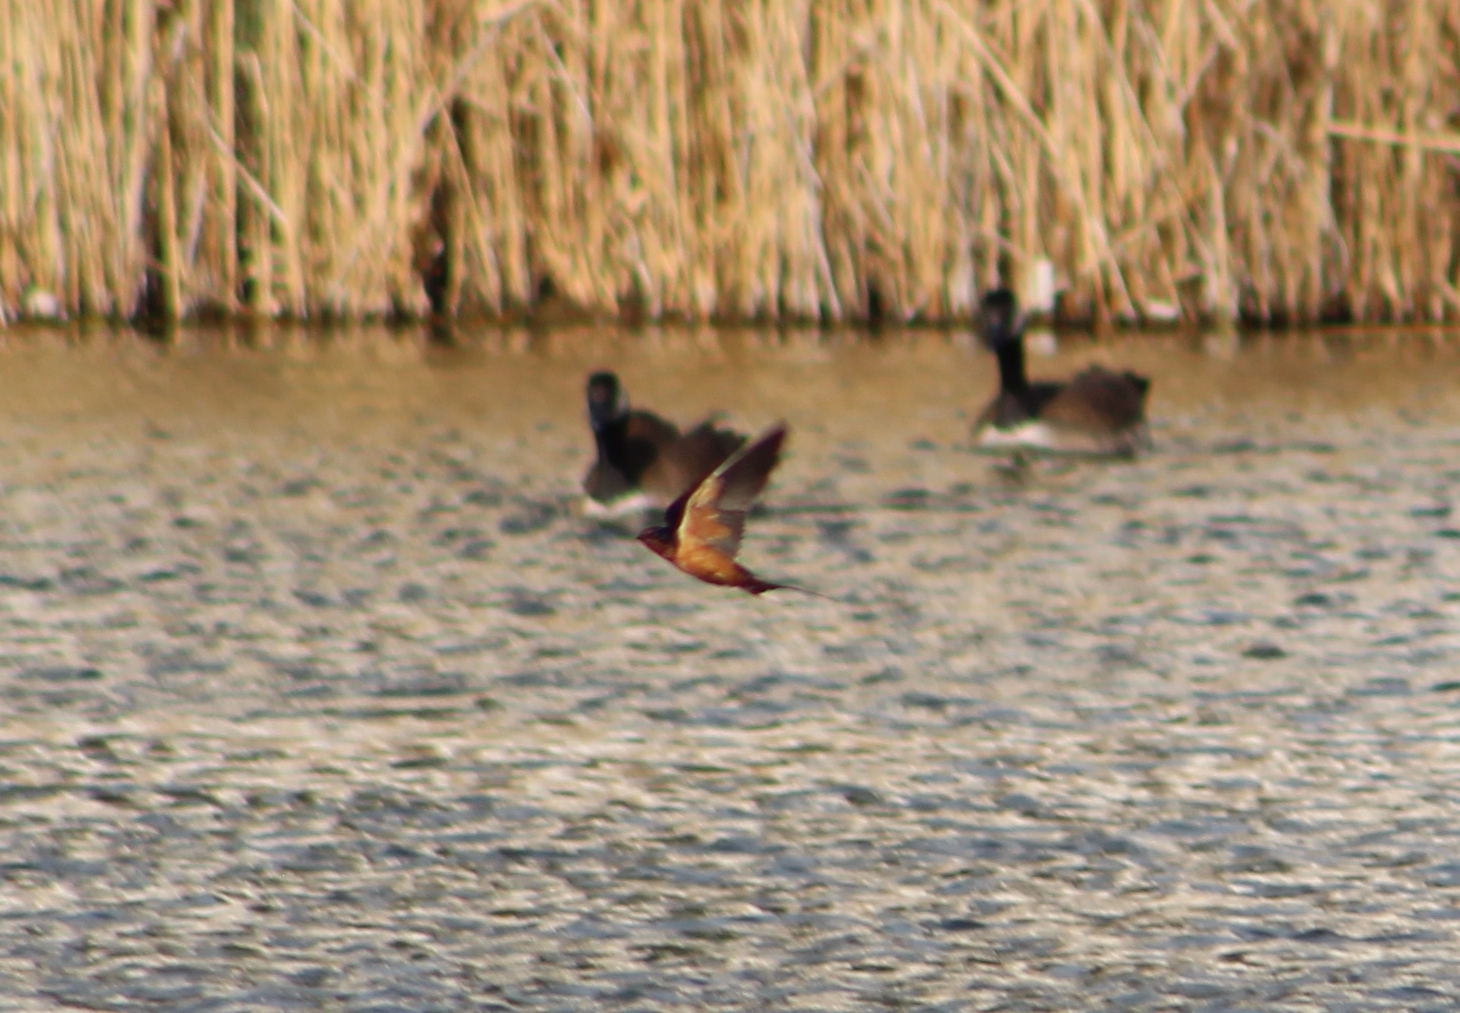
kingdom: Animalia
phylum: Chordata
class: Aves
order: Passeriformes
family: Hirundinidae
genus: Hirundo
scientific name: Hirundo rustica
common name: Barn swallow
